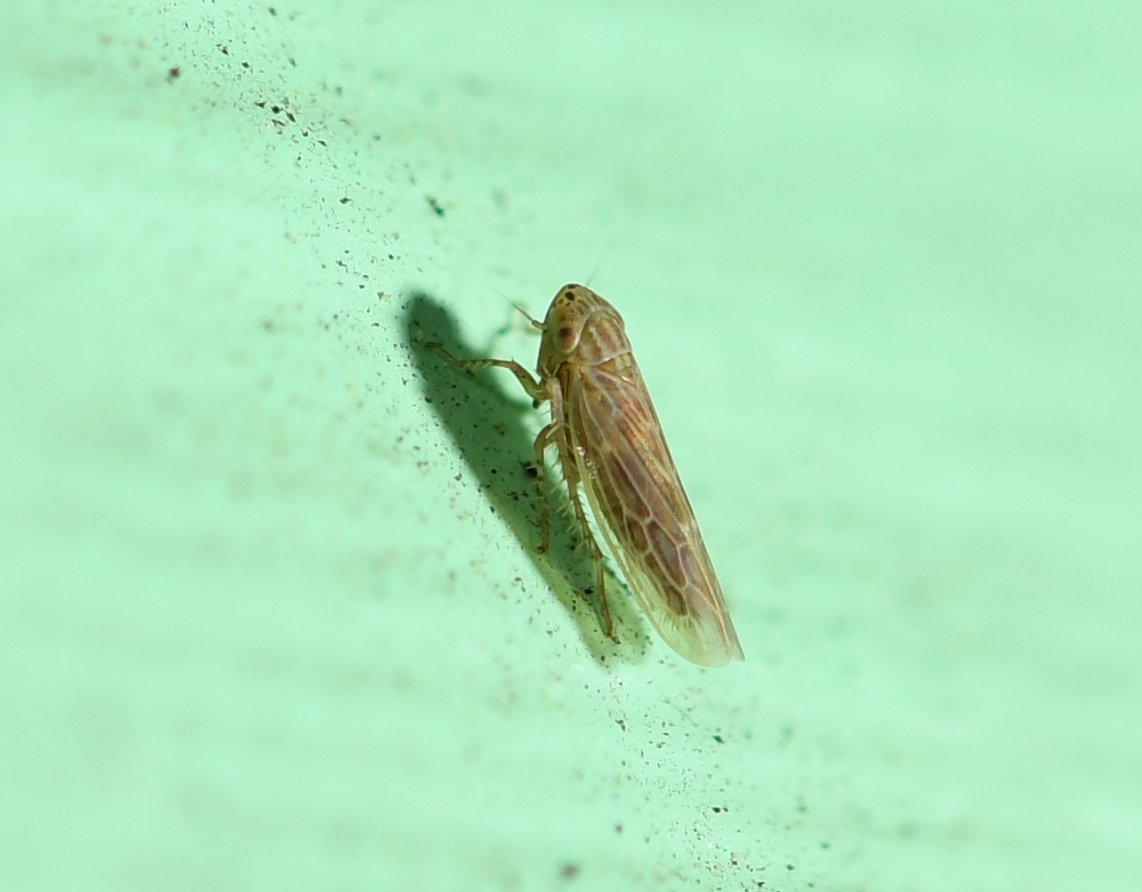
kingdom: Animalia
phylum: Arthropoda
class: Insecta
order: Hemiptera
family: Cicadellidae
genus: Graminella
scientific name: Graminella sonora
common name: Lesser lawn leafhopper
